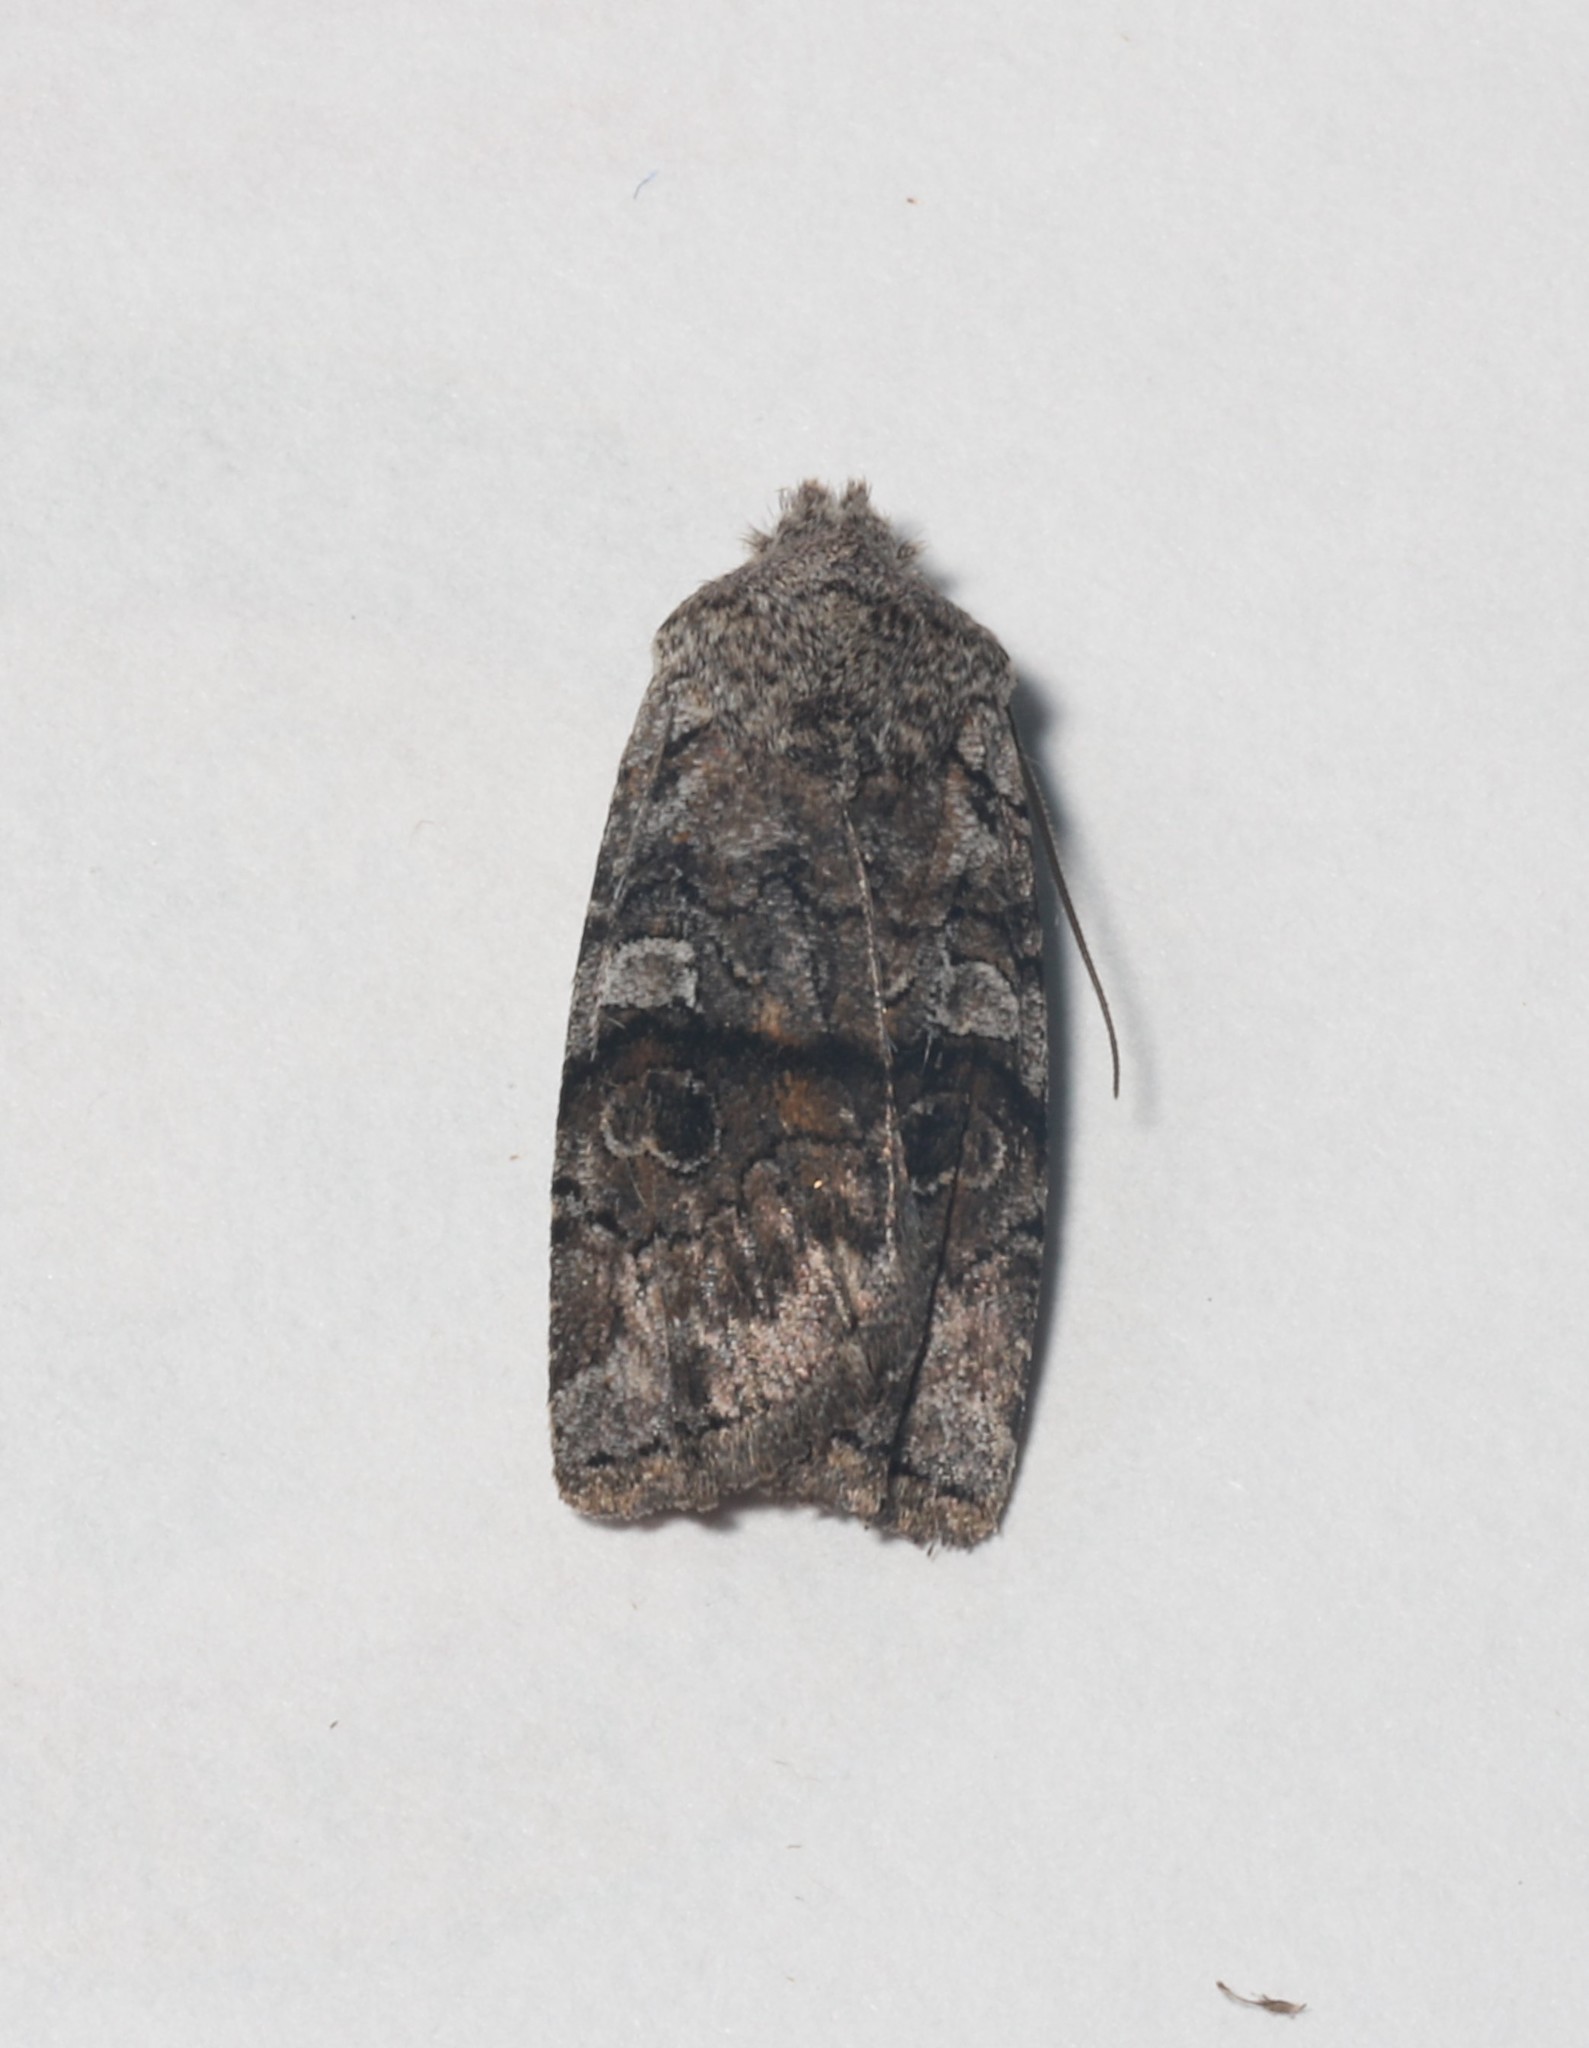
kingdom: Animalia
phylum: Arthropoda
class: Insecta
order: Lepidoptera
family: Noctuidae
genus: Litholomia
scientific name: Litholomia napaea
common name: False pinion moth
